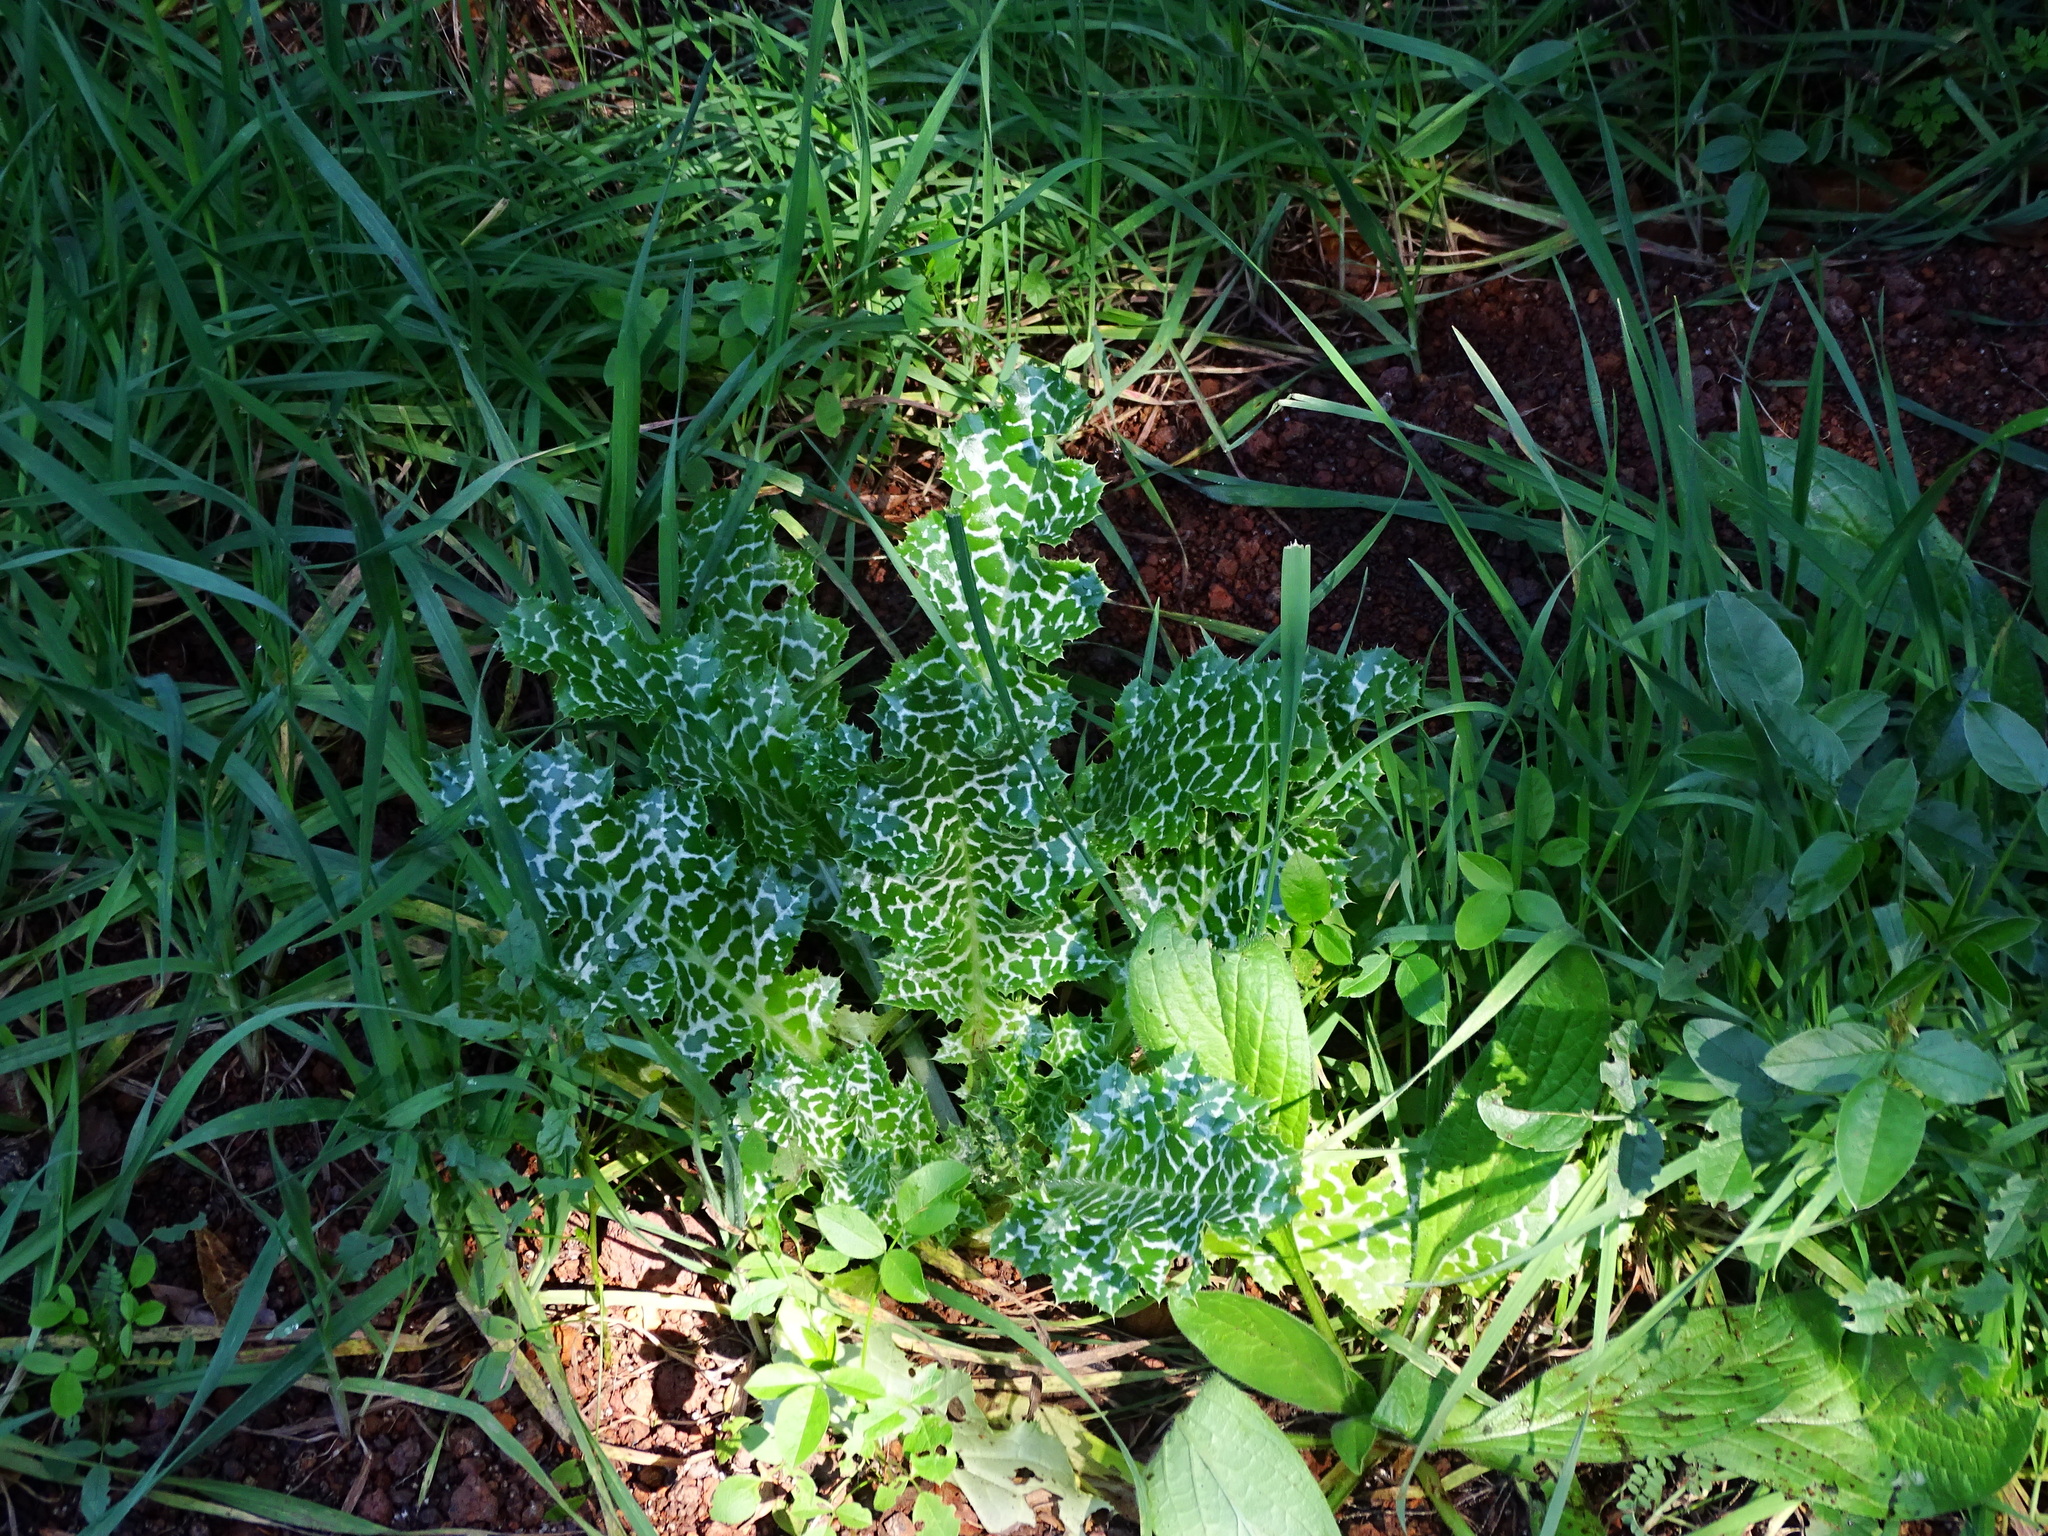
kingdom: Plantae
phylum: Tracheophyta
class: Magnoliopsida
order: Asterales
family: Asteraceae
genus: Silybum
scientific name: Silybum marianum
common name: Milk thistle
